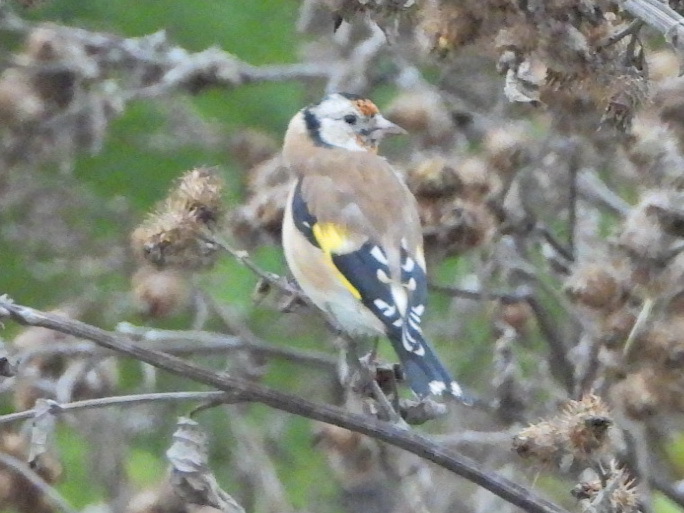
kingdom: Animalia
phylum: Chordata
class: Aves
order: Passeriformes
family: Fringillidae
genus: Carduelis
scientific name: Carduelis carduelis
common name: European goldfinch
